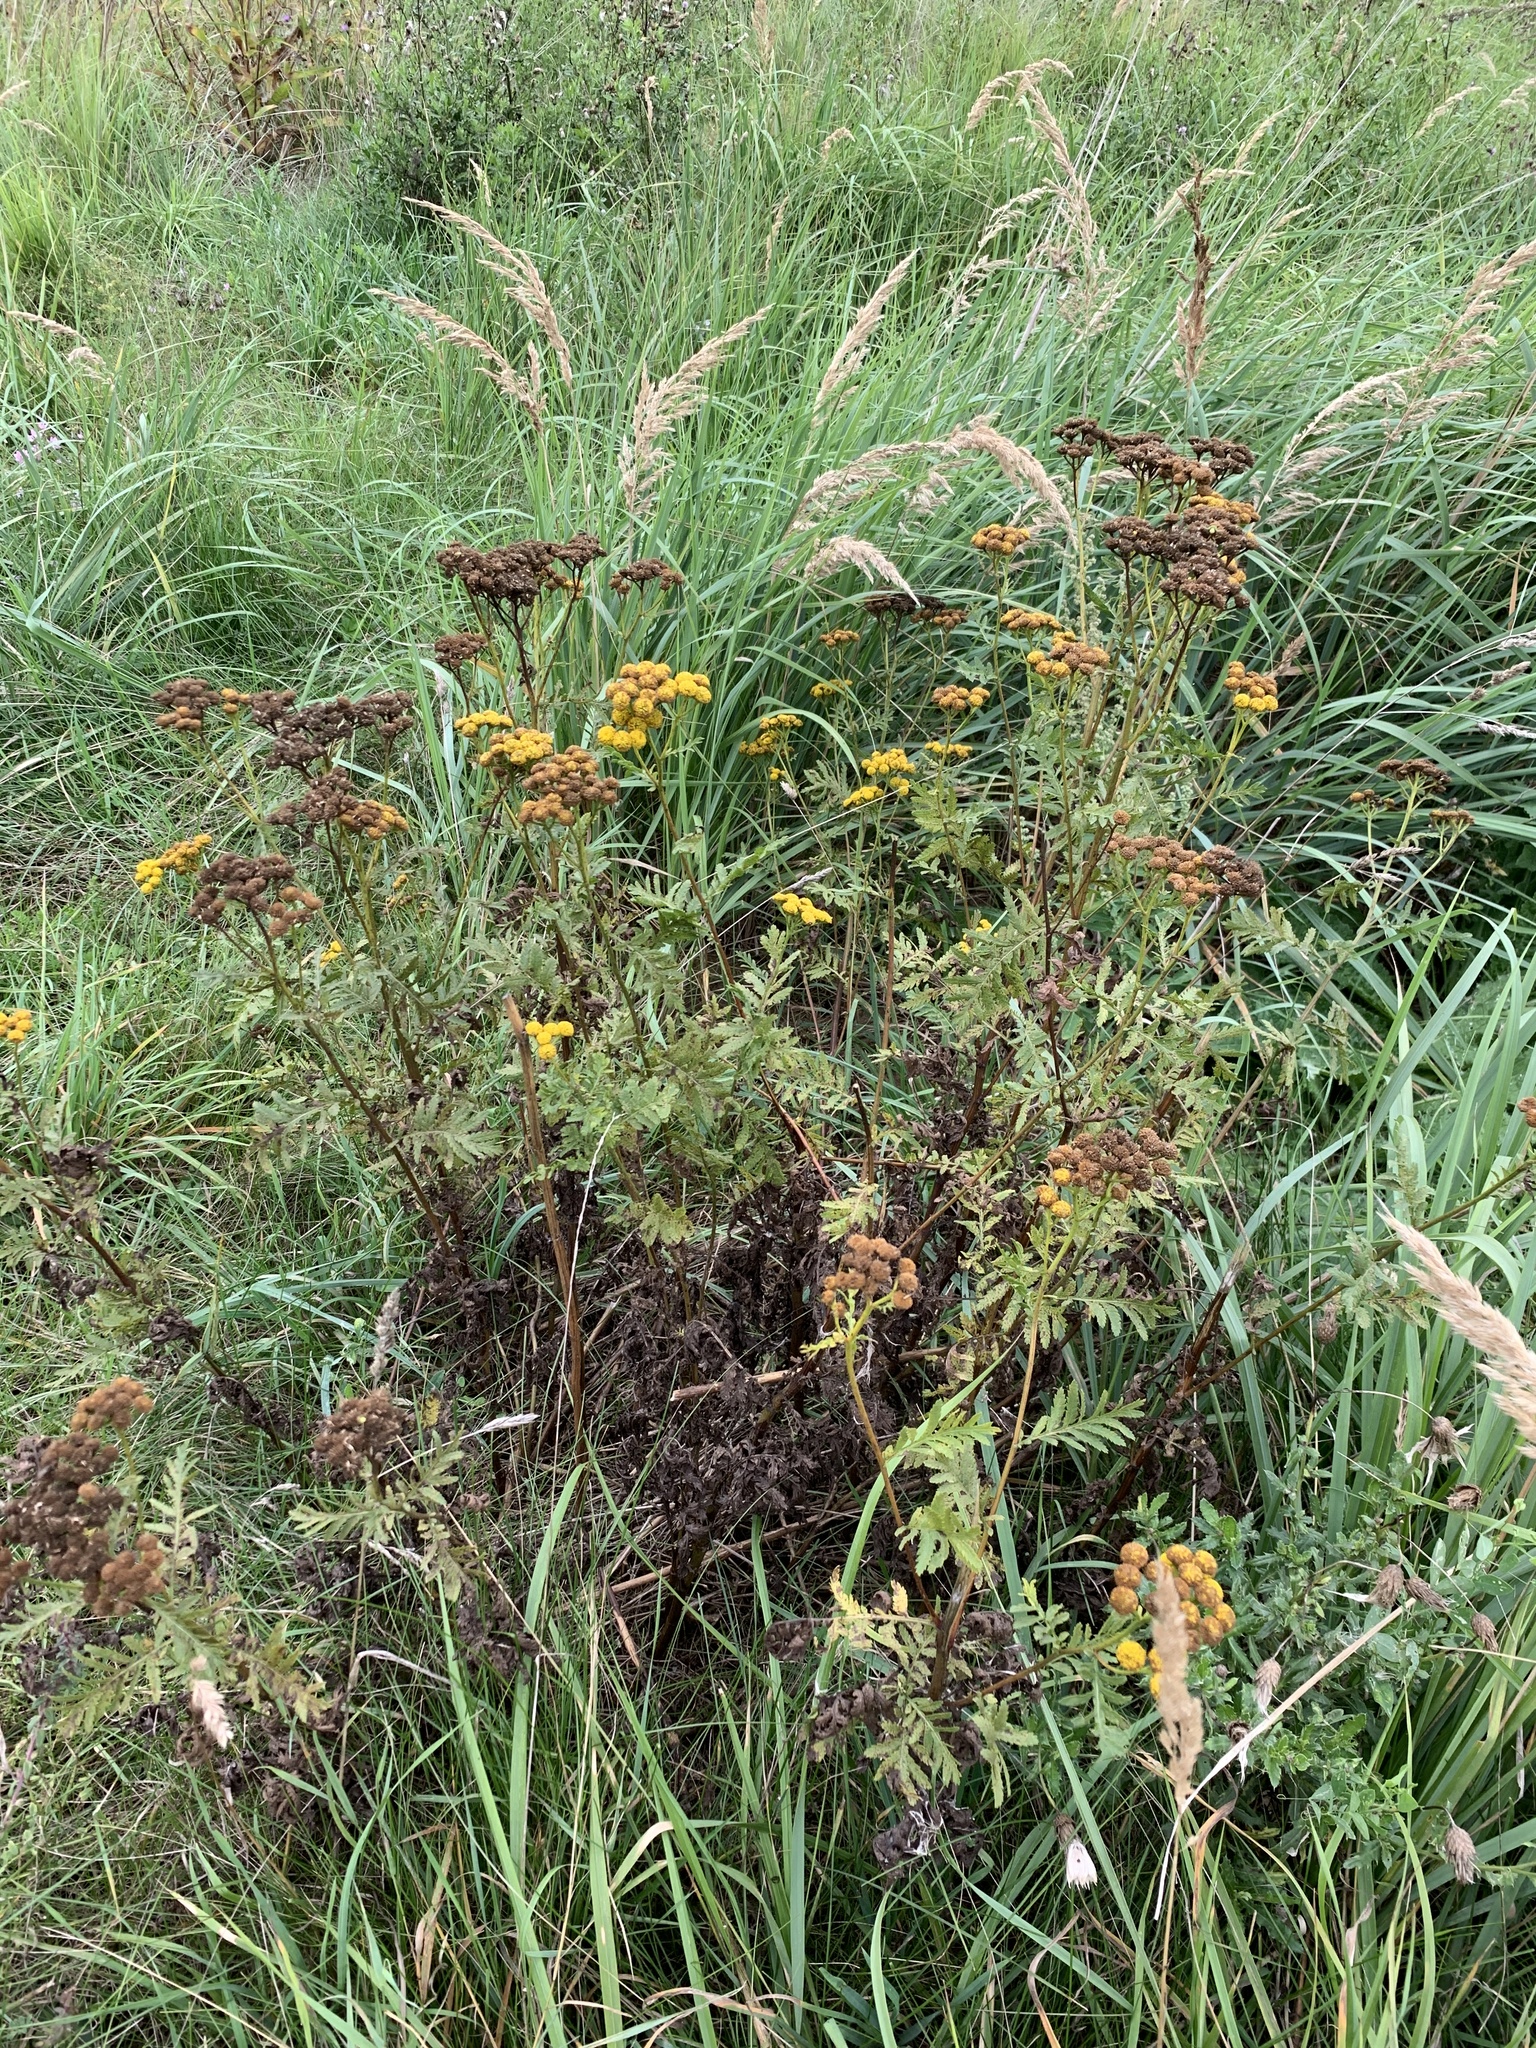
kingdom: Plantae
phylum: Tracheophyta
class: Magnoliopsida
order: Asterales
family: Asteraceae
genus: Tanacetum
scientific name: Tanacetum vulgare
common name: Common tansy
